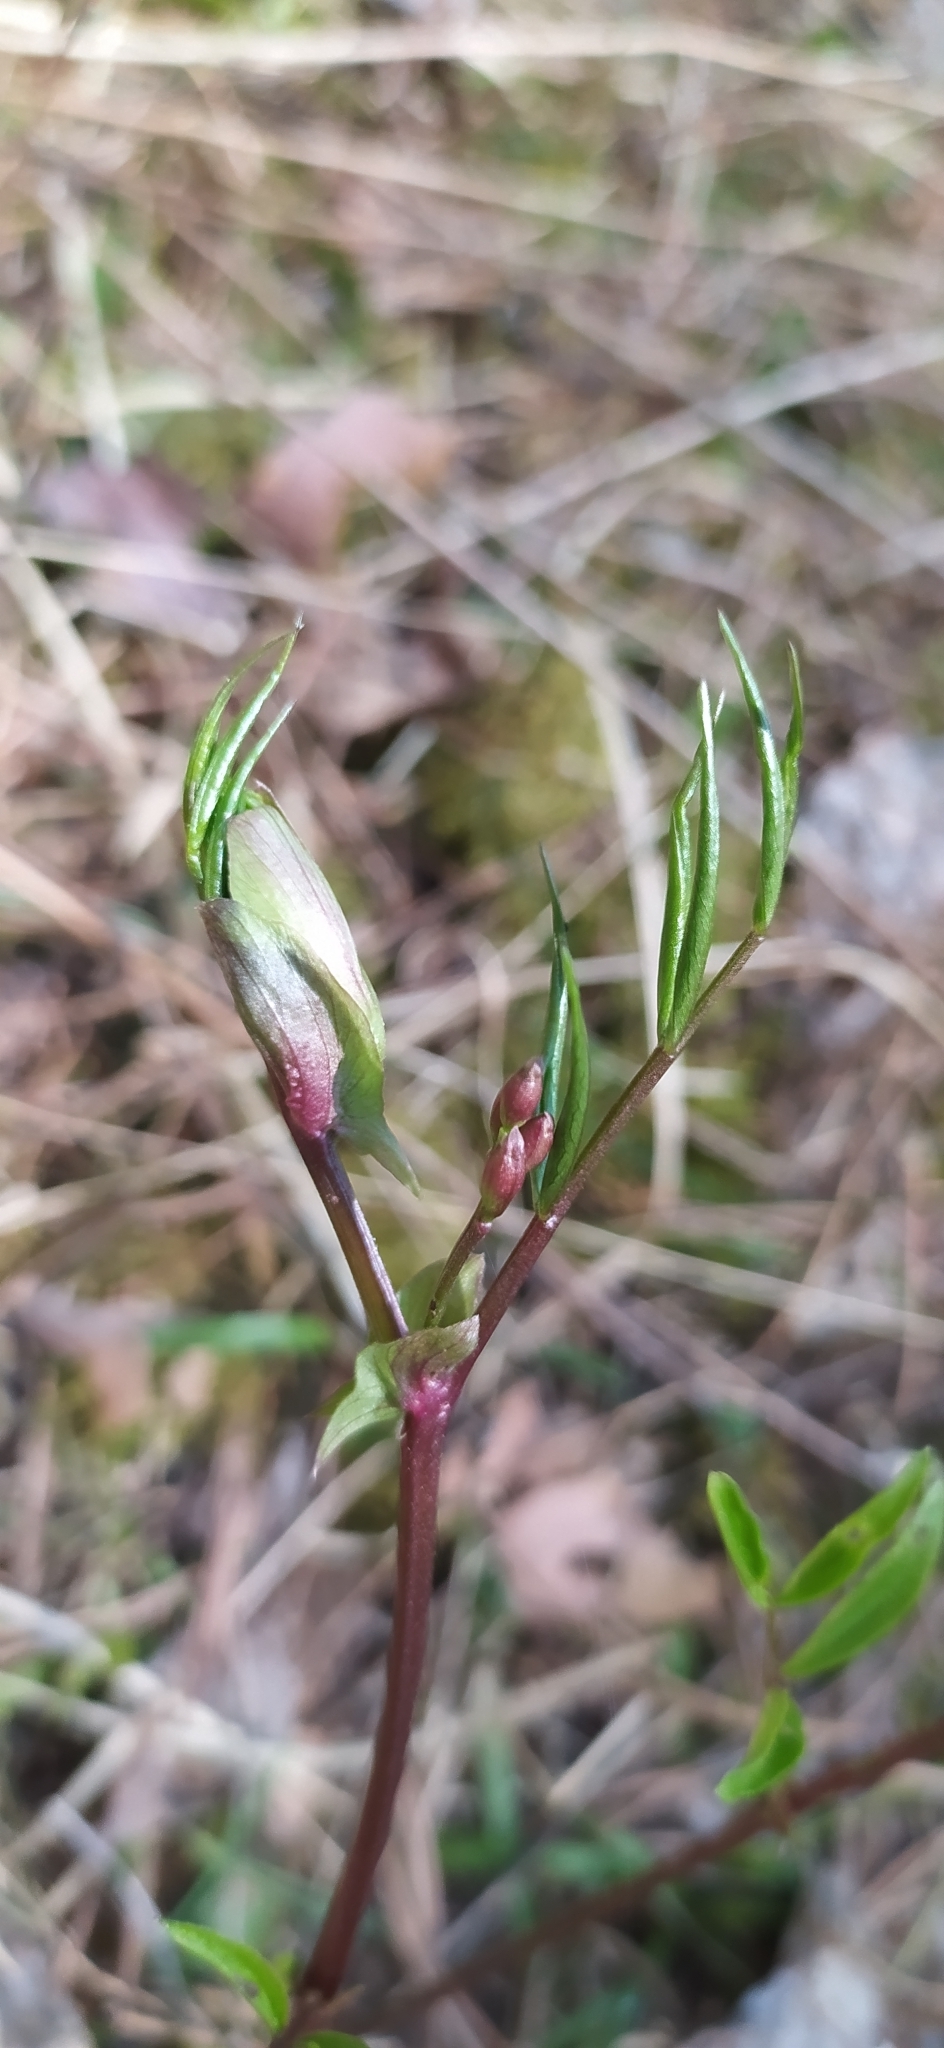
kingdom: Plantae
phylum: Tracheophyta
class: Magnoliopsida
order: Fabales
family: Fabaceae
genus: Lathyrus
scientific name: Lathyrus vernus
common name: Spring pea
